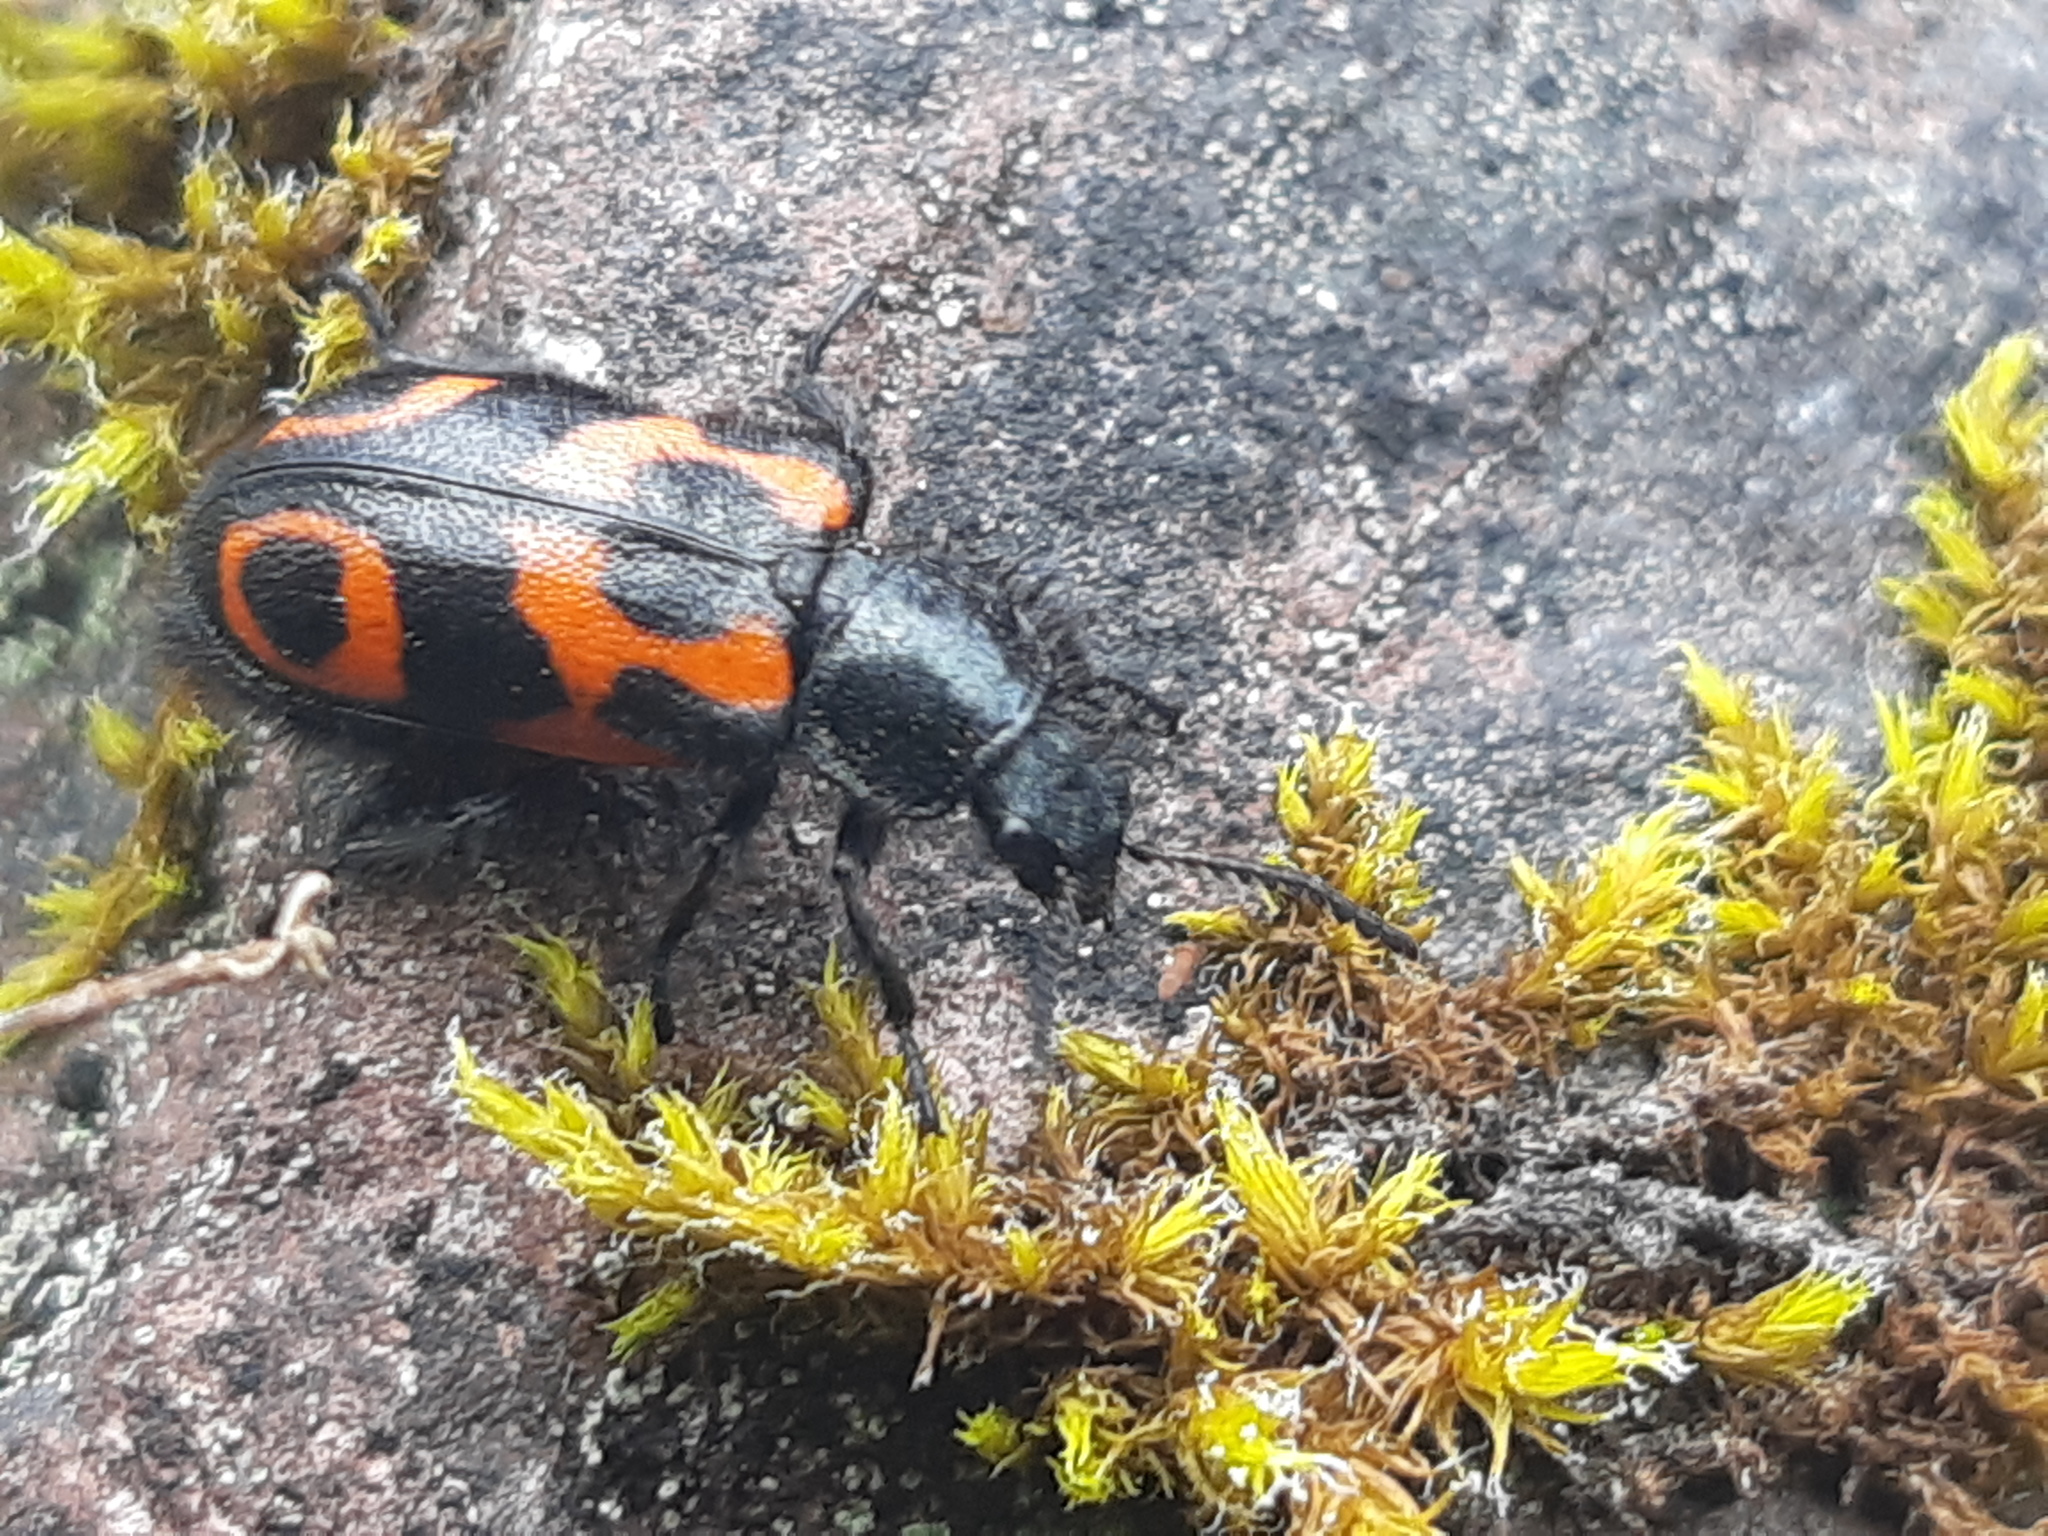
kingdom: Animalia
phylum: Arthropoda
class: Insecta
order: Coleoptera
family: Melyridae
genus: Astylus
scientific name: Astylus
